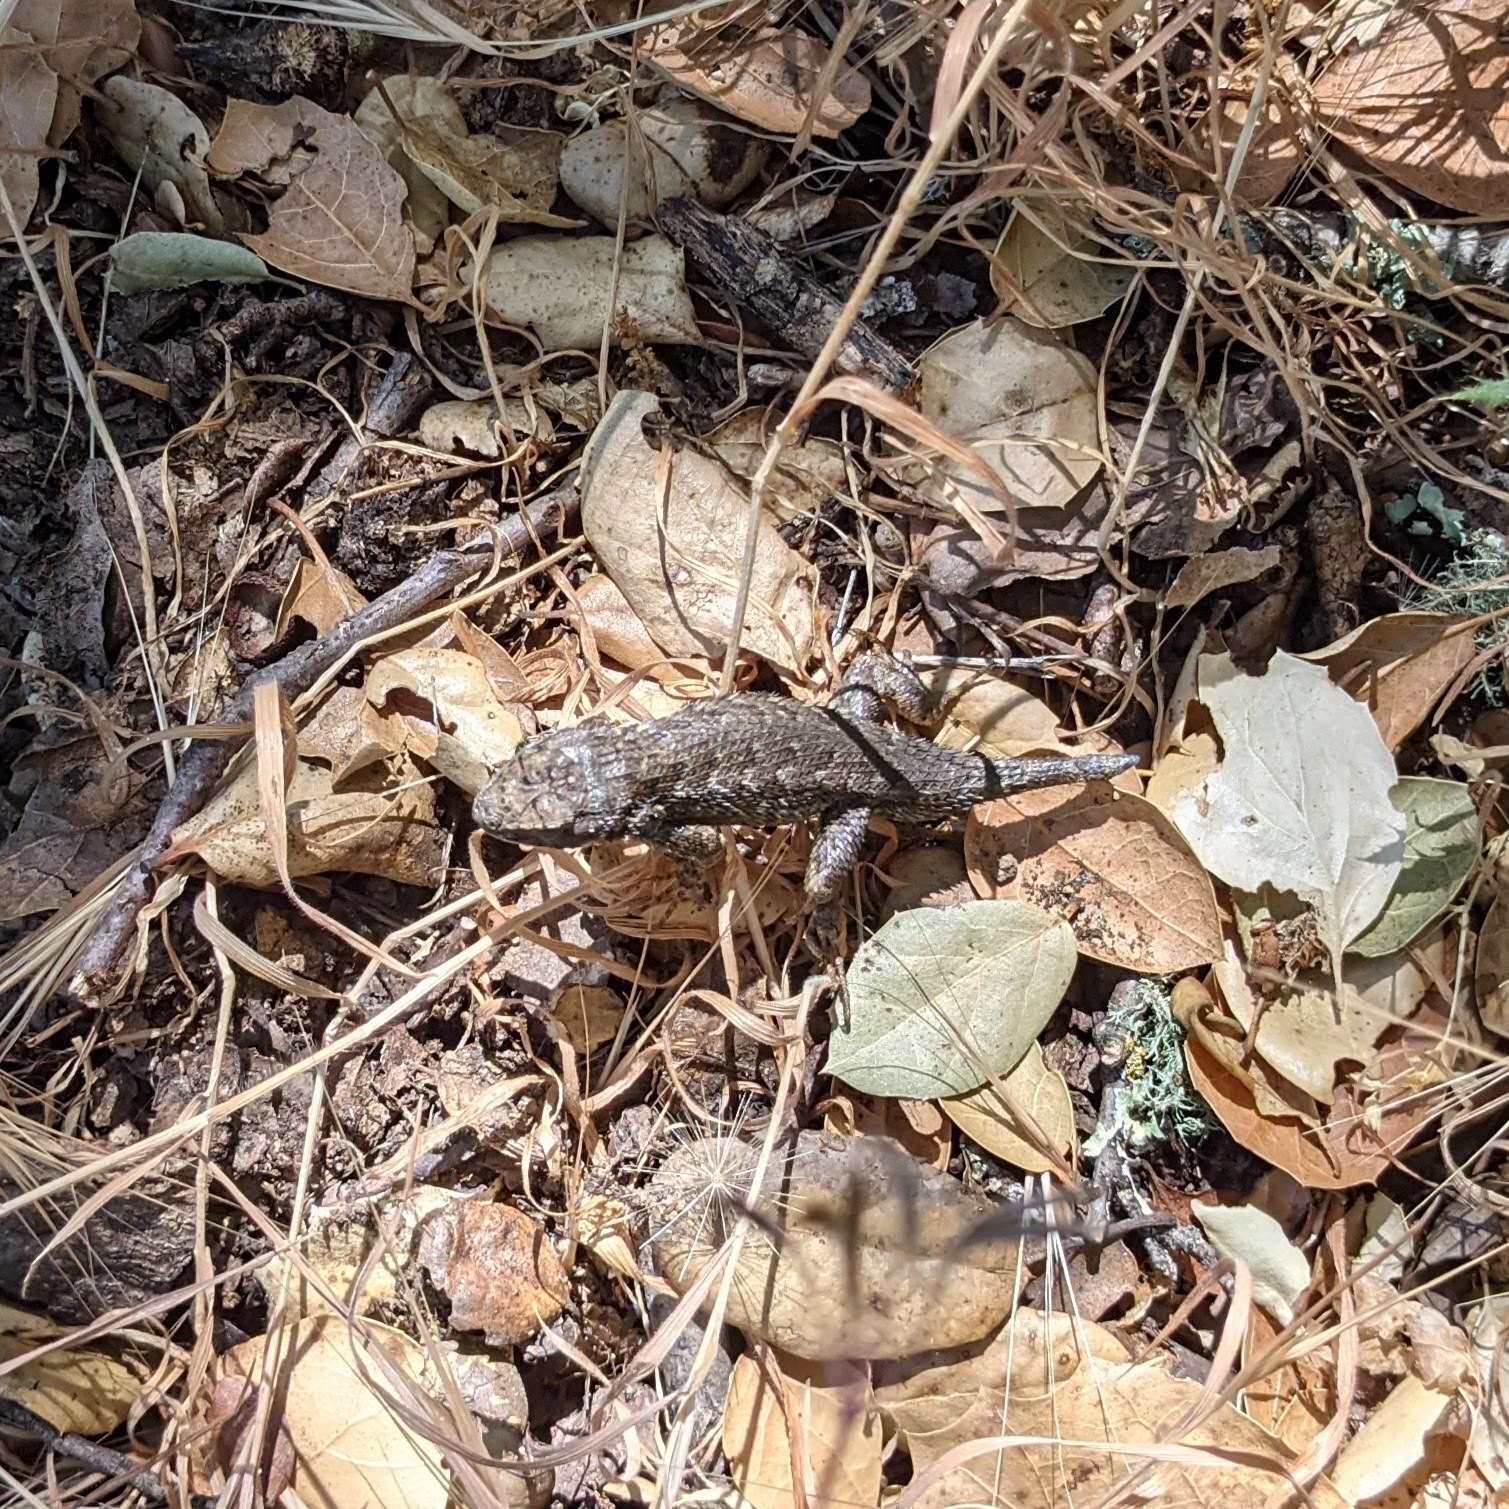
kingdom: Animalia
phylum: Chordata
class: Squamata
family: Phrynosomatidae
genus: Sceloporus
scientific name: Sceloporus occidentalis
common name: Western fence lizard
